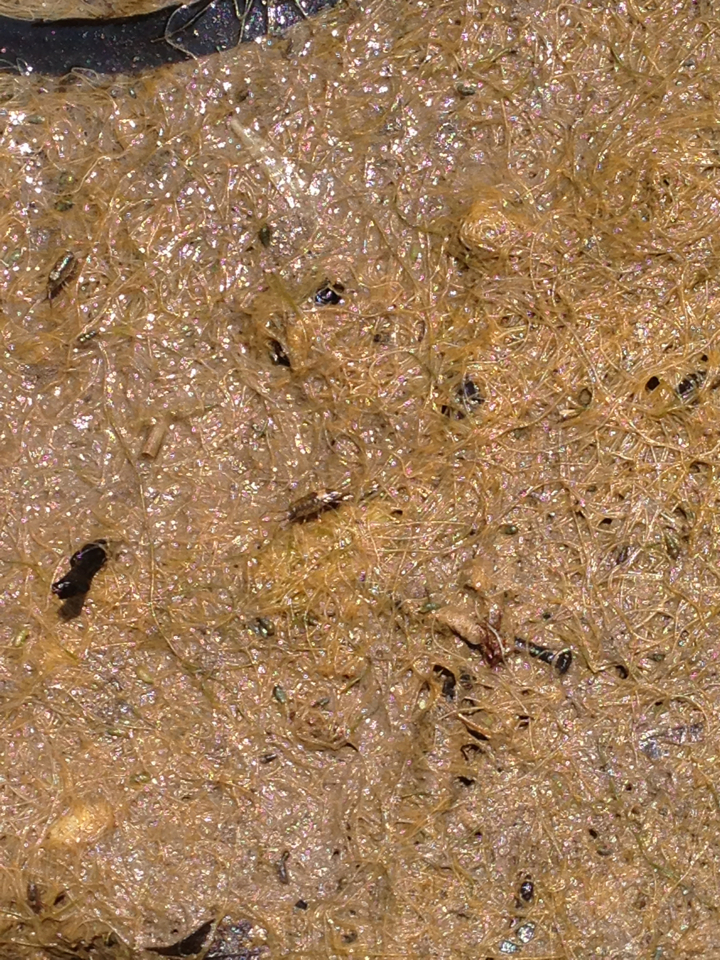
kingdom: Animalia
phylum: Arthropoda
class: Malacostraca
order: Isopoda
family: Ligiidae
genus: Ligia
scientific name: Ligia italica
